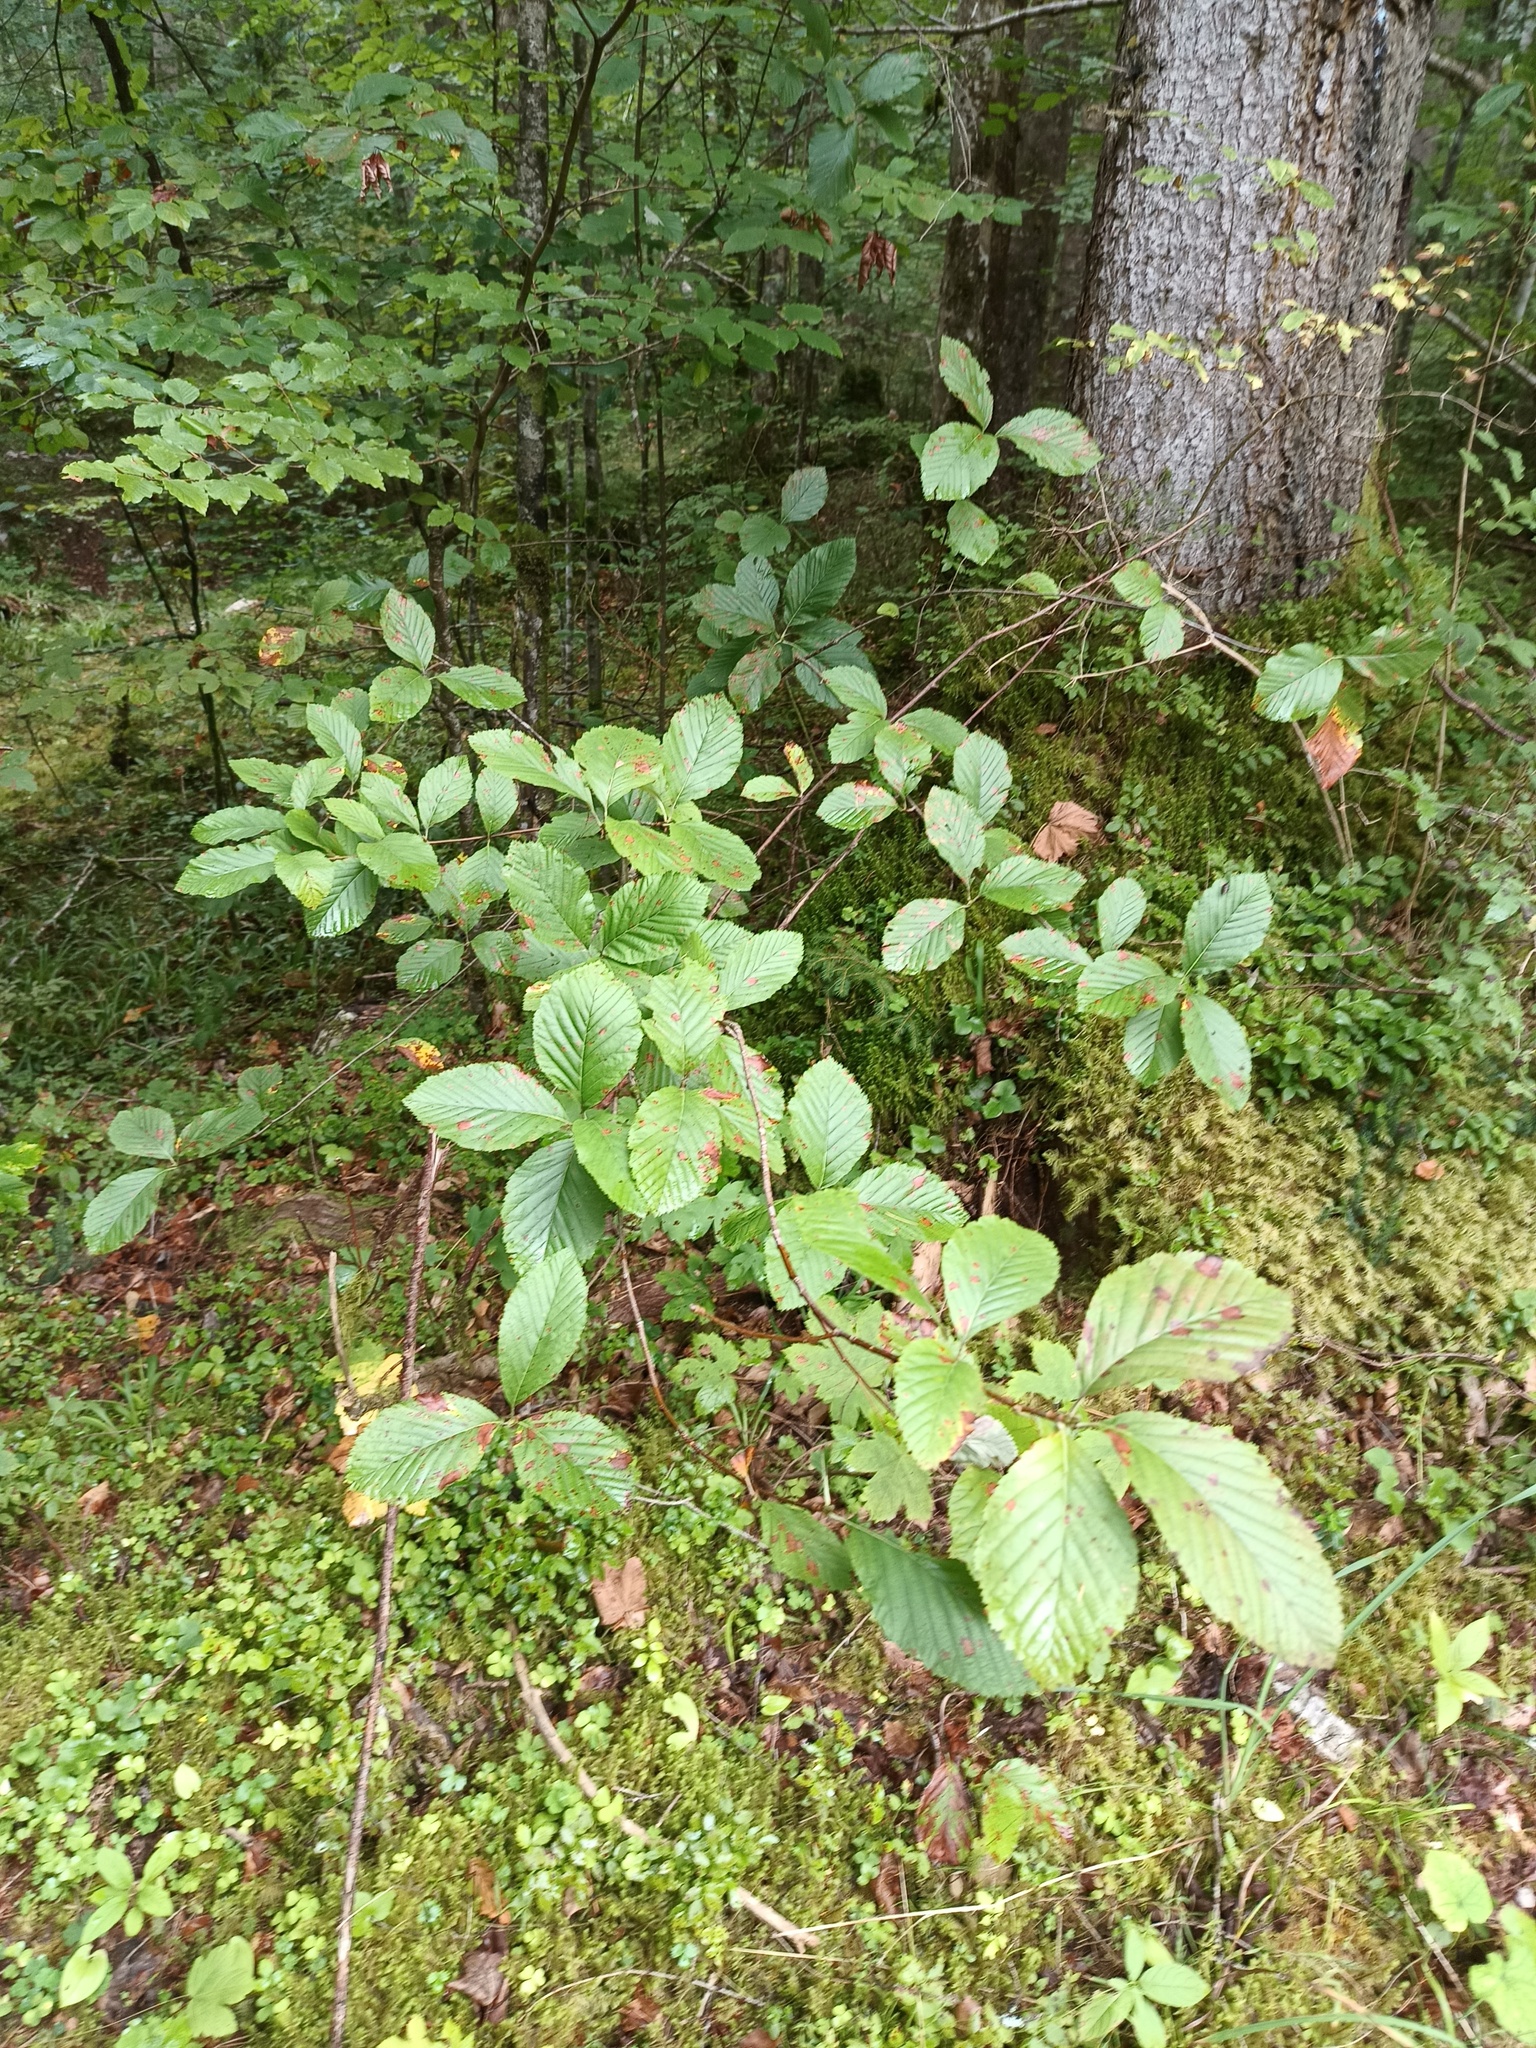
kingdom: Plantae
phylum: Tracheophyta
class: Magnoliopsida
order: Rosales
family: Rosaceae
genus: Aria
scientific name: Aria edulis
